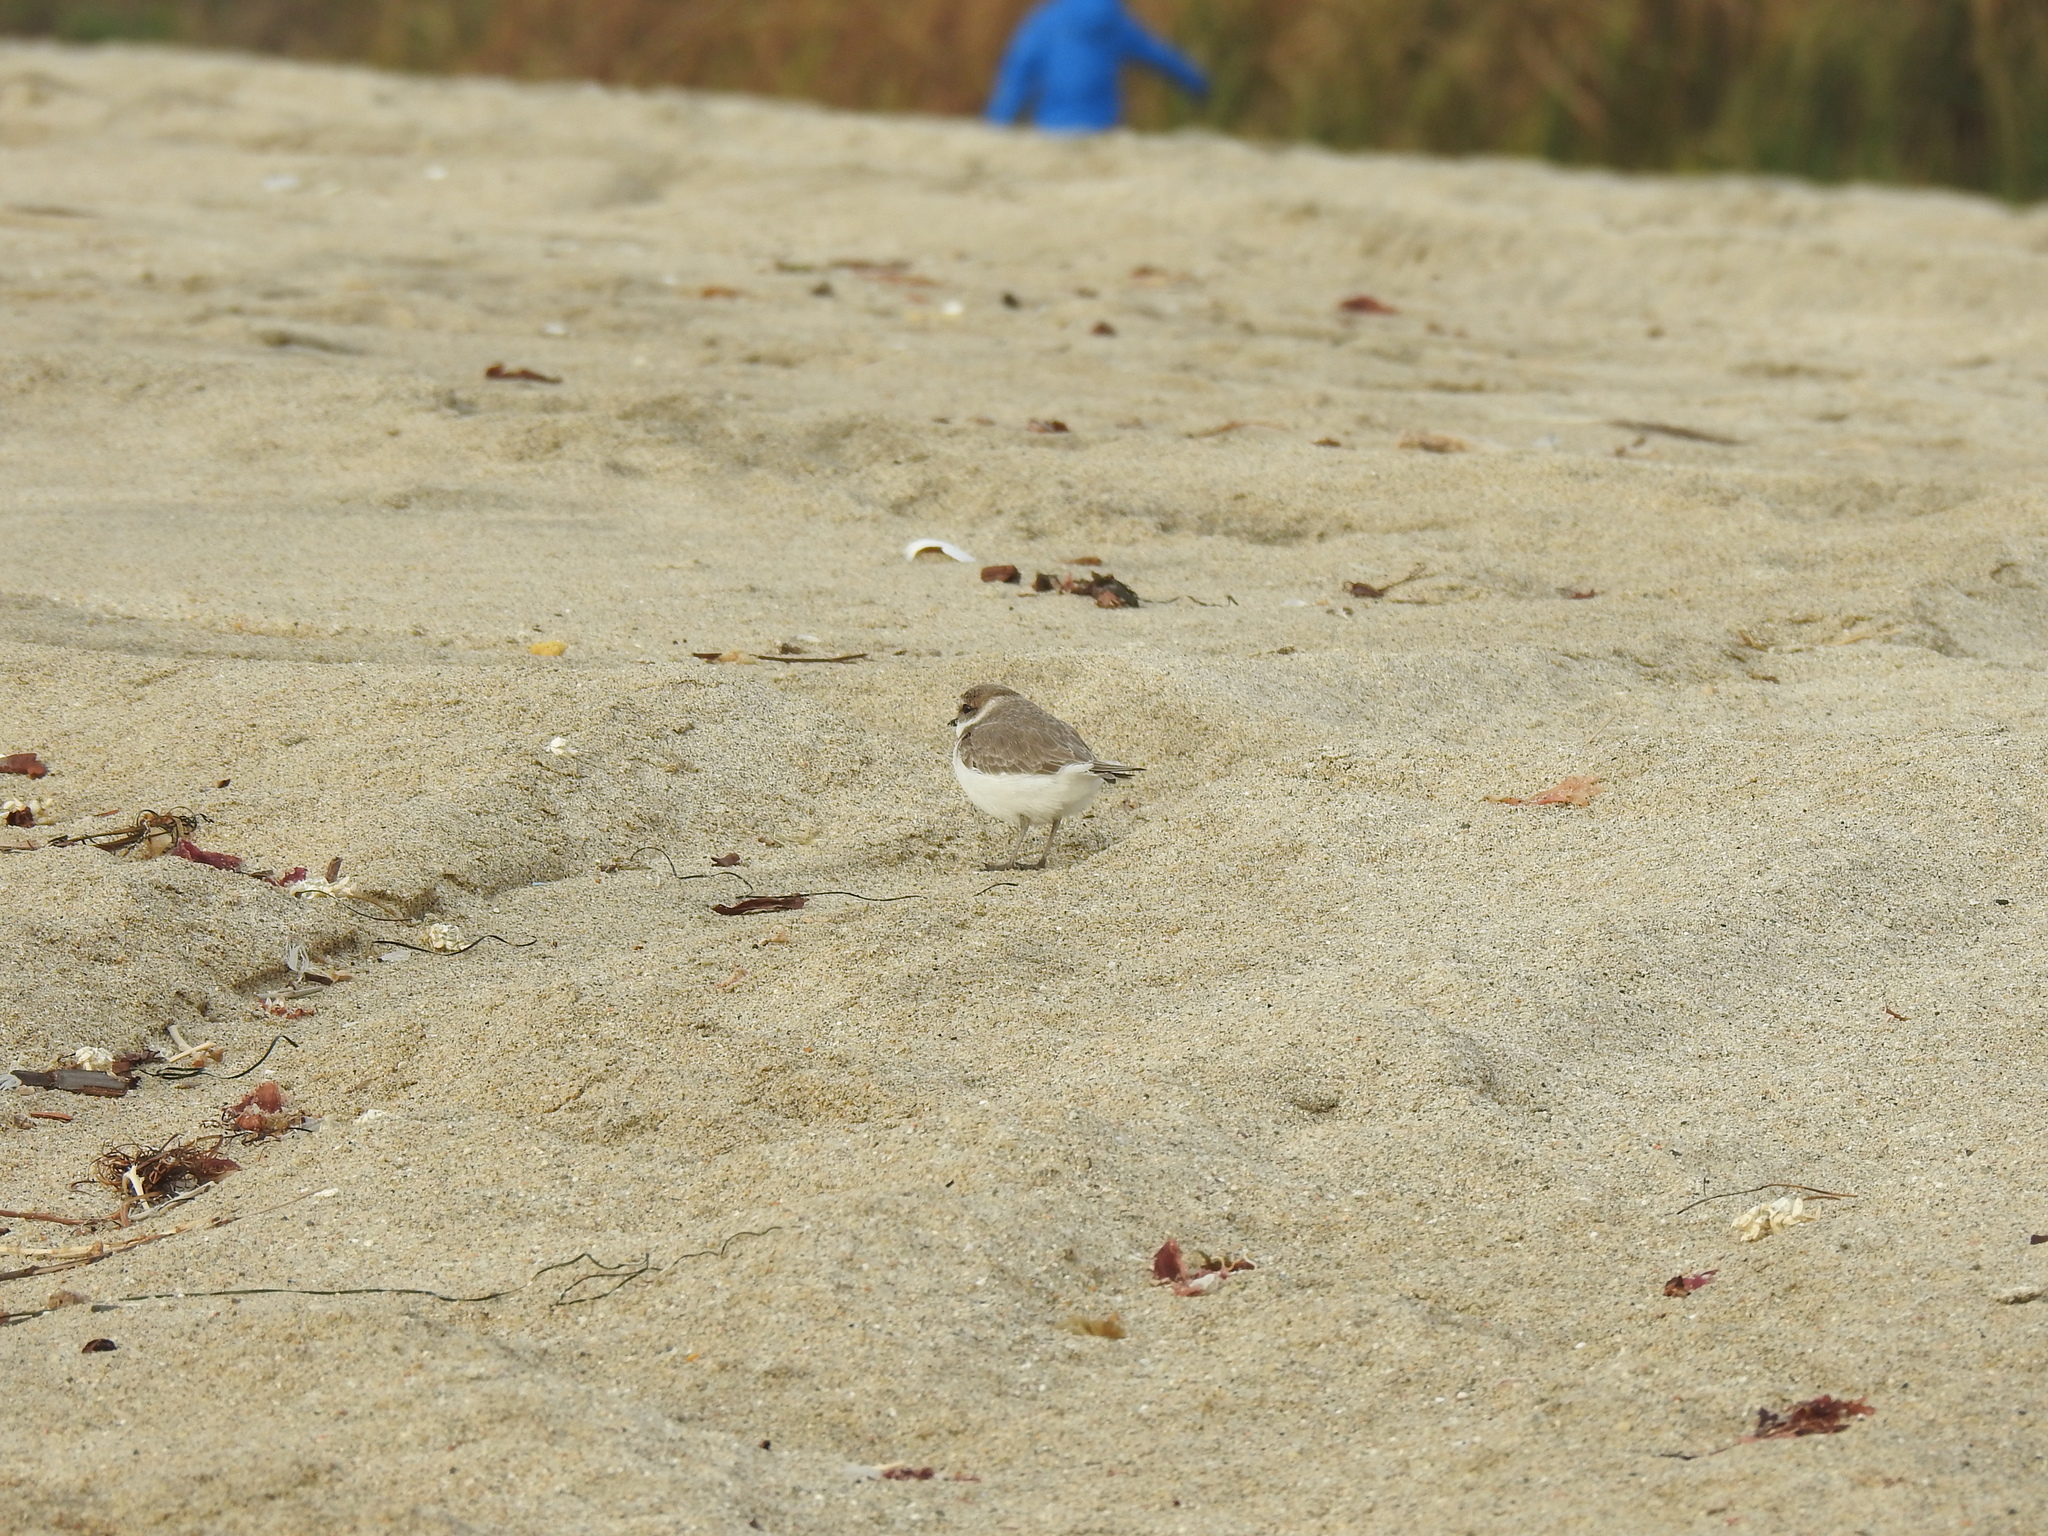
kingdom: Animalia
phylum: Chordata
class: Aves
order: Charadriiformes
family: Charadriidae
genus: Anarhynchus
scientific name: Anarhynchus
